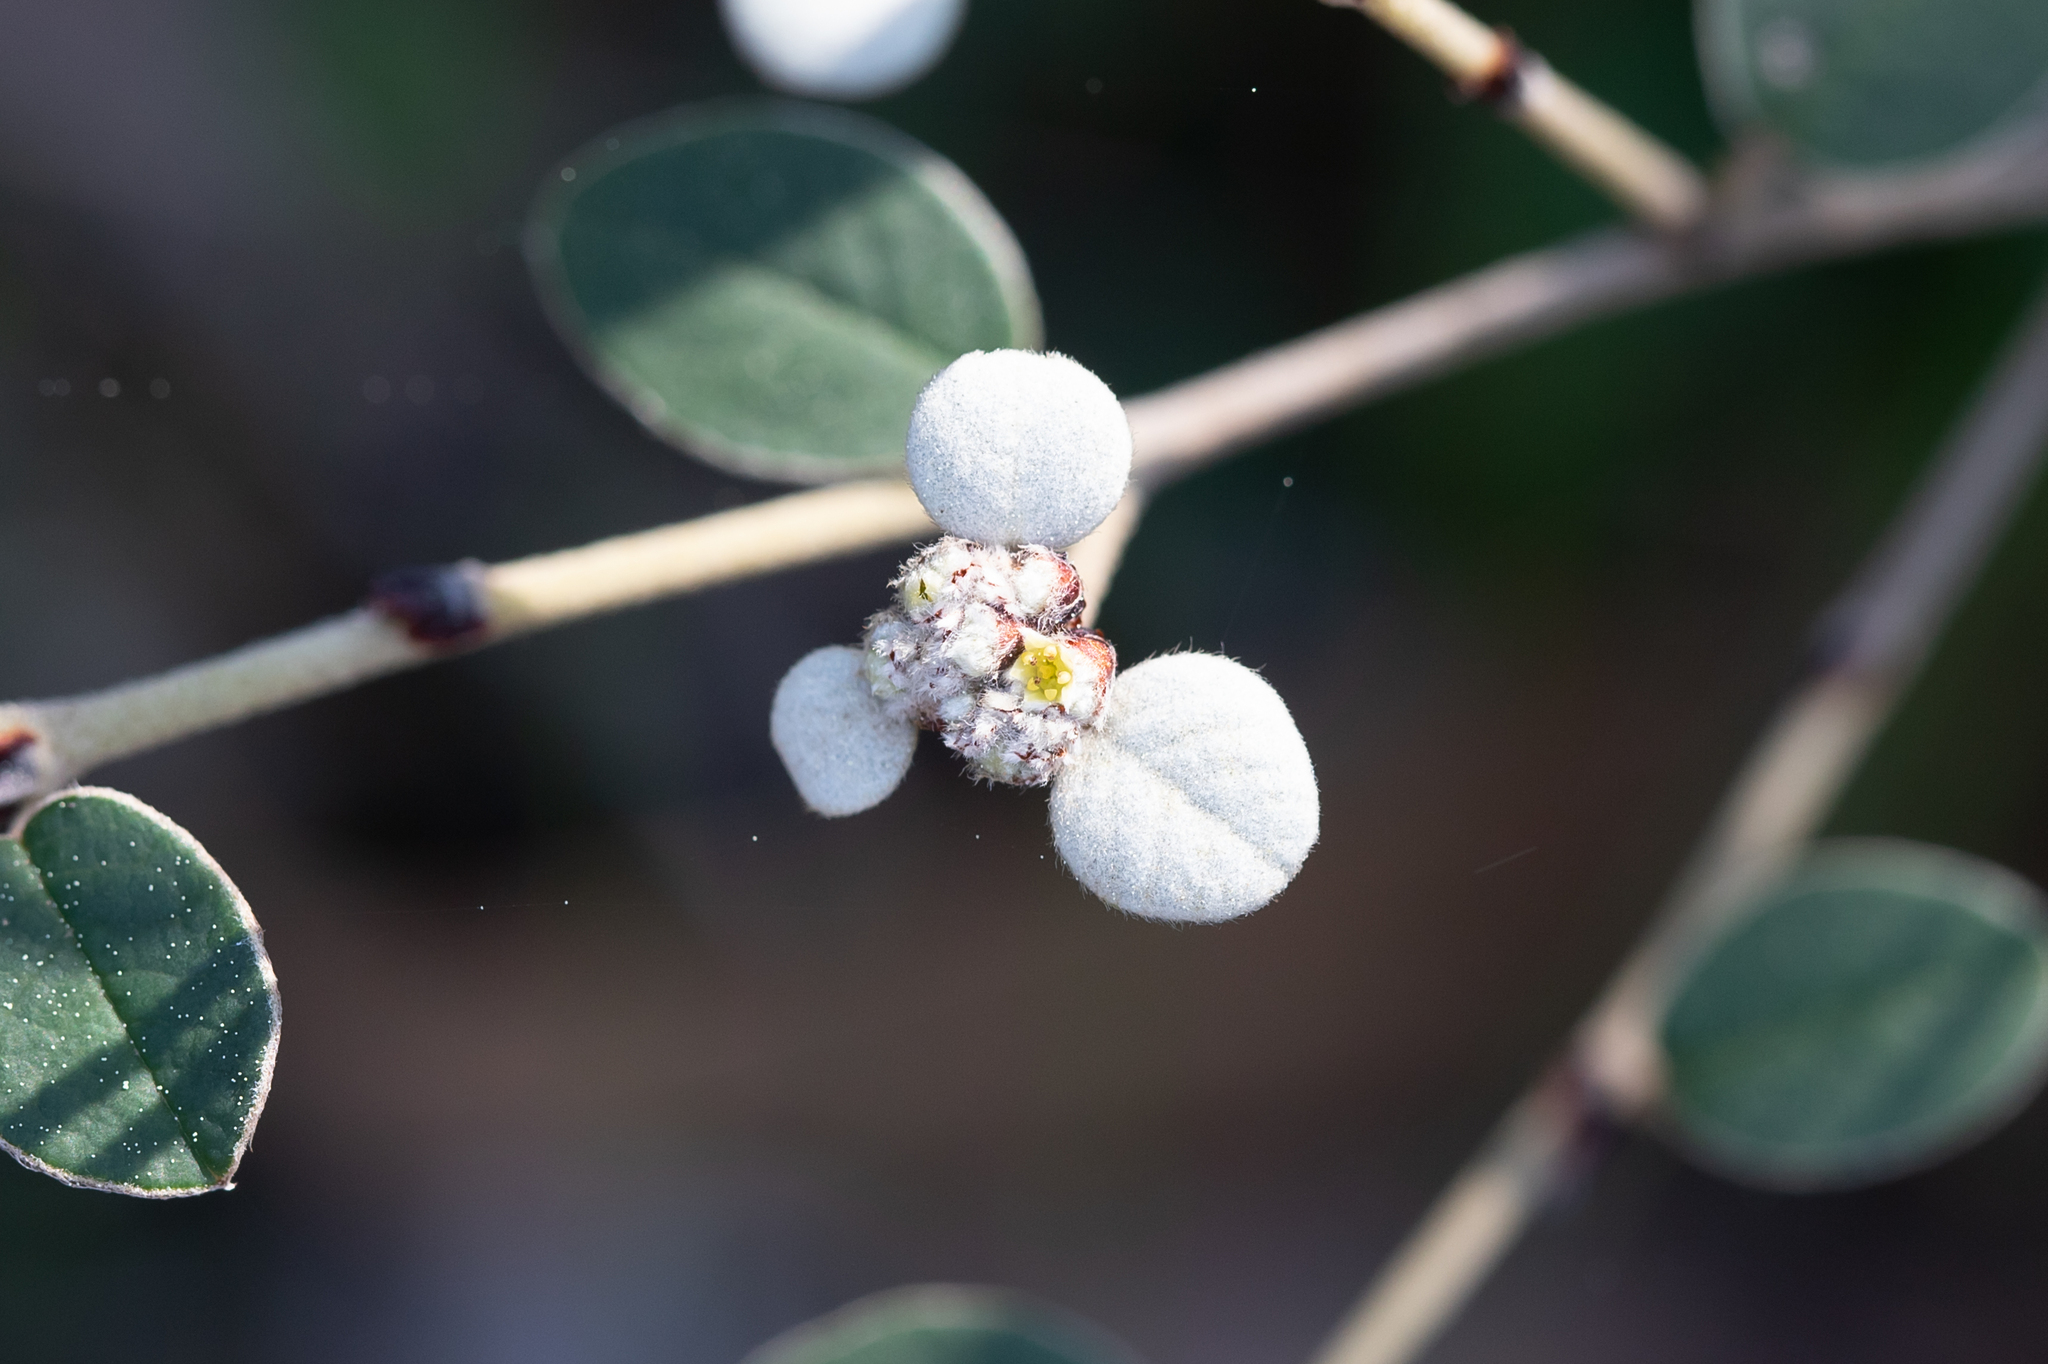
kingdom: Plantae
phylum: Tracheophyta
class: Magnoliopsida
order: Rosales
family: Rhamnaceae
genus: Spyridium
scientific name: Spyridium thymifolium
